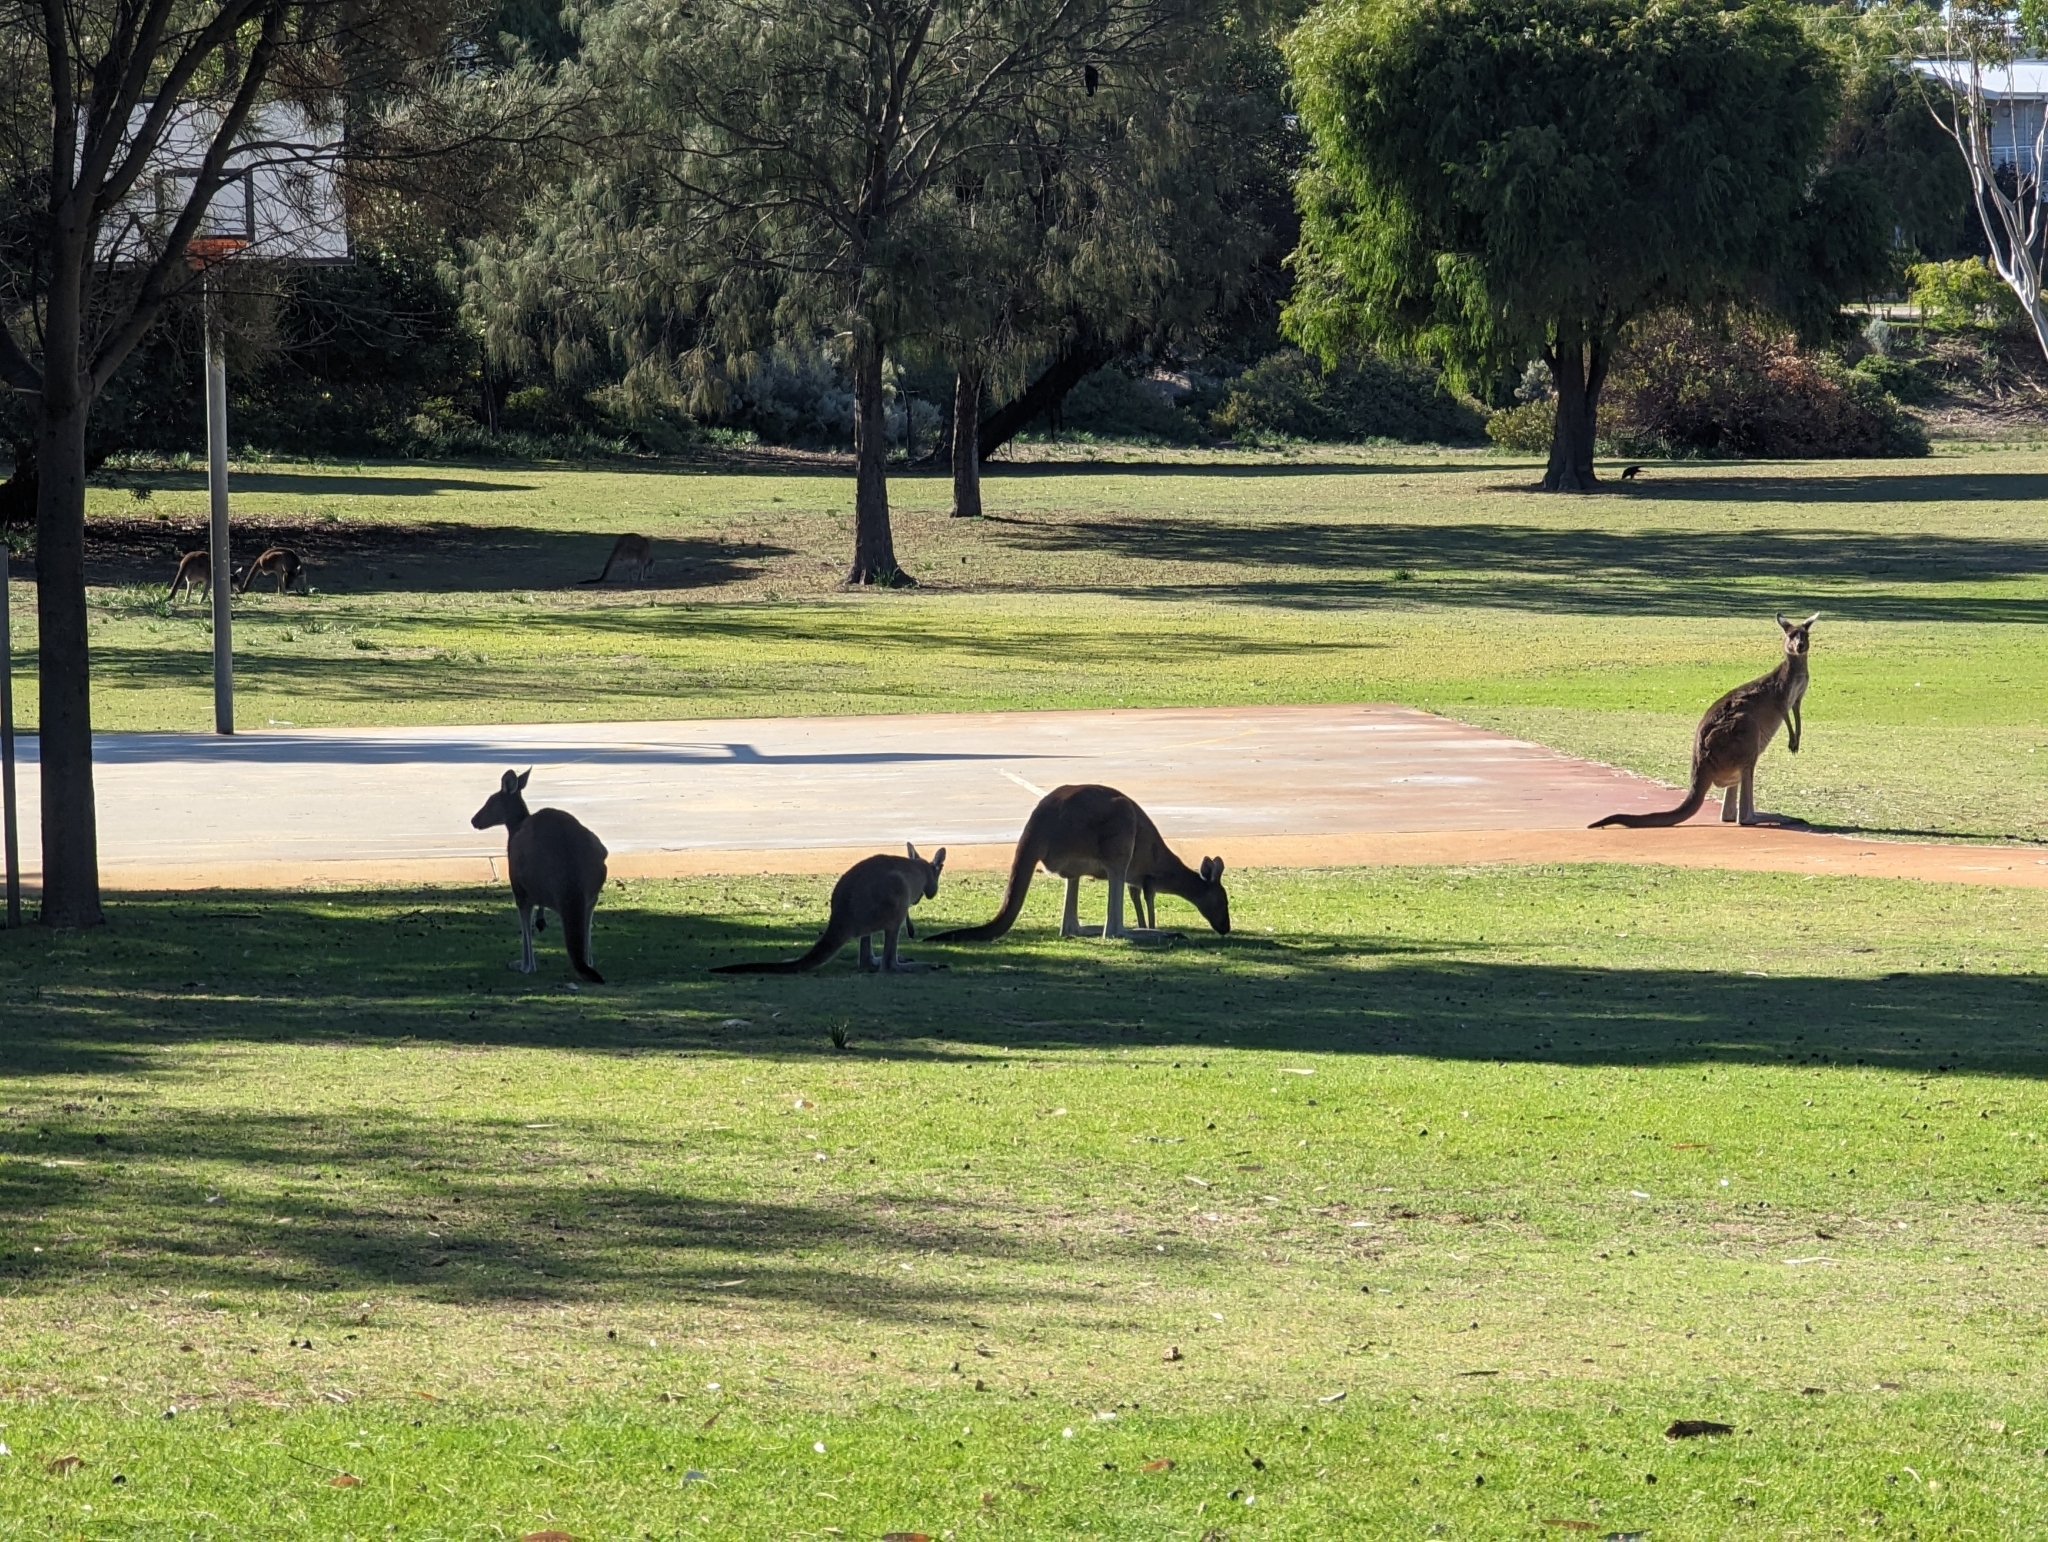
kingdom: Animalia
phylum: Chordata
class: Mammalia
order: Diprotodontia
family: Macropodidae
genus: Macropus
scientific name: Macropus fuliginosus
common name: Western grey kangaroo
